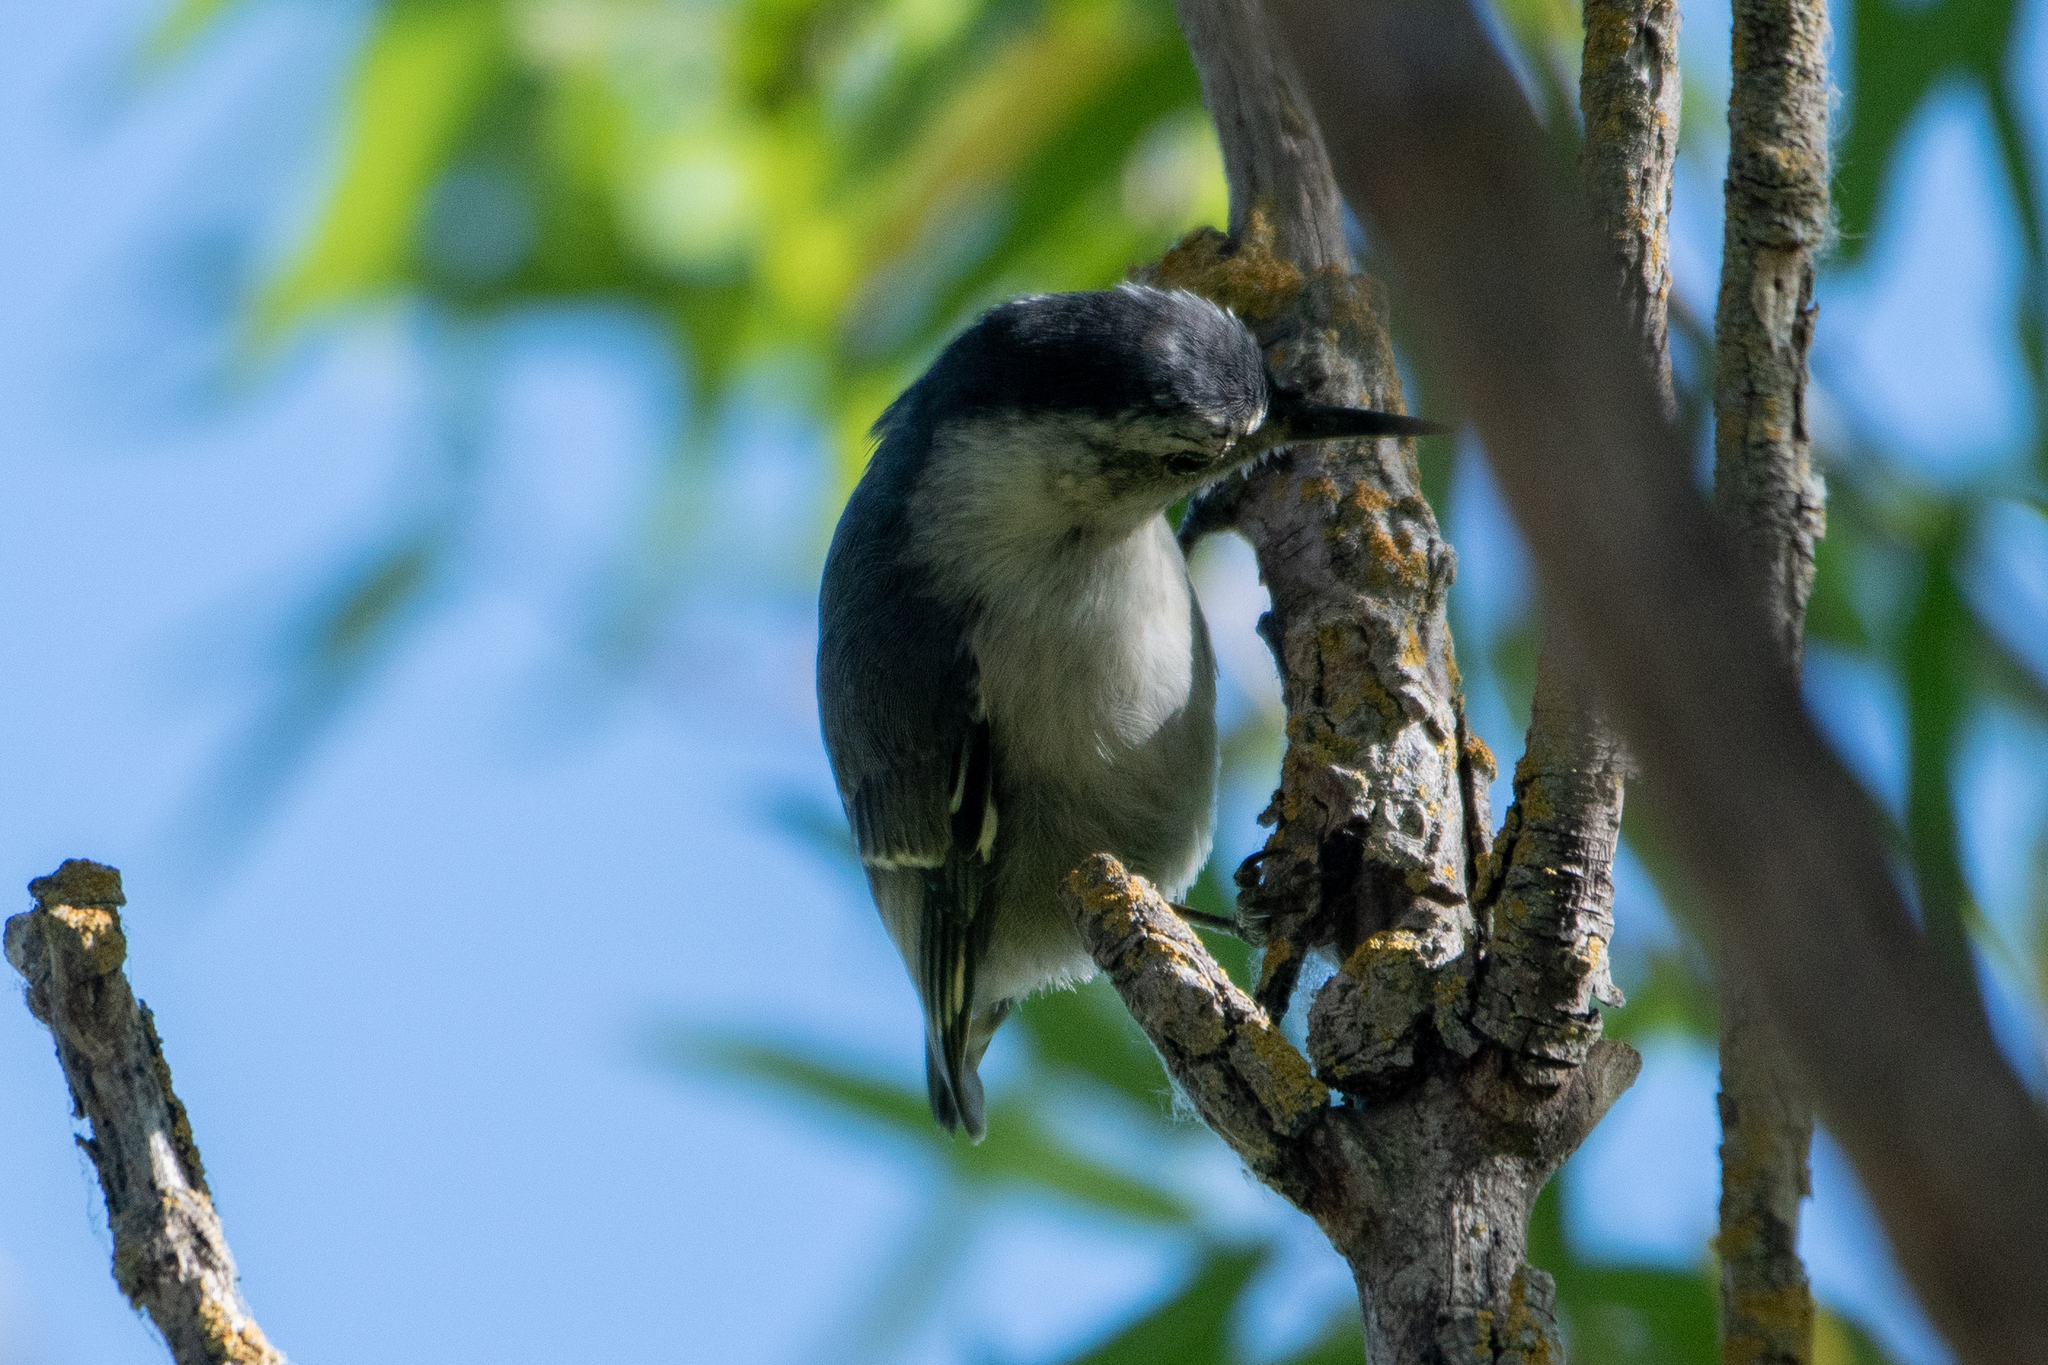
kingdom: Animalia
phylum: Chordata
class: Aves
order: Passeriformes
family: Sittidae
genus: Sitta
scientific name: Sitta carolinensis
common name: White-breasted nuthatch
